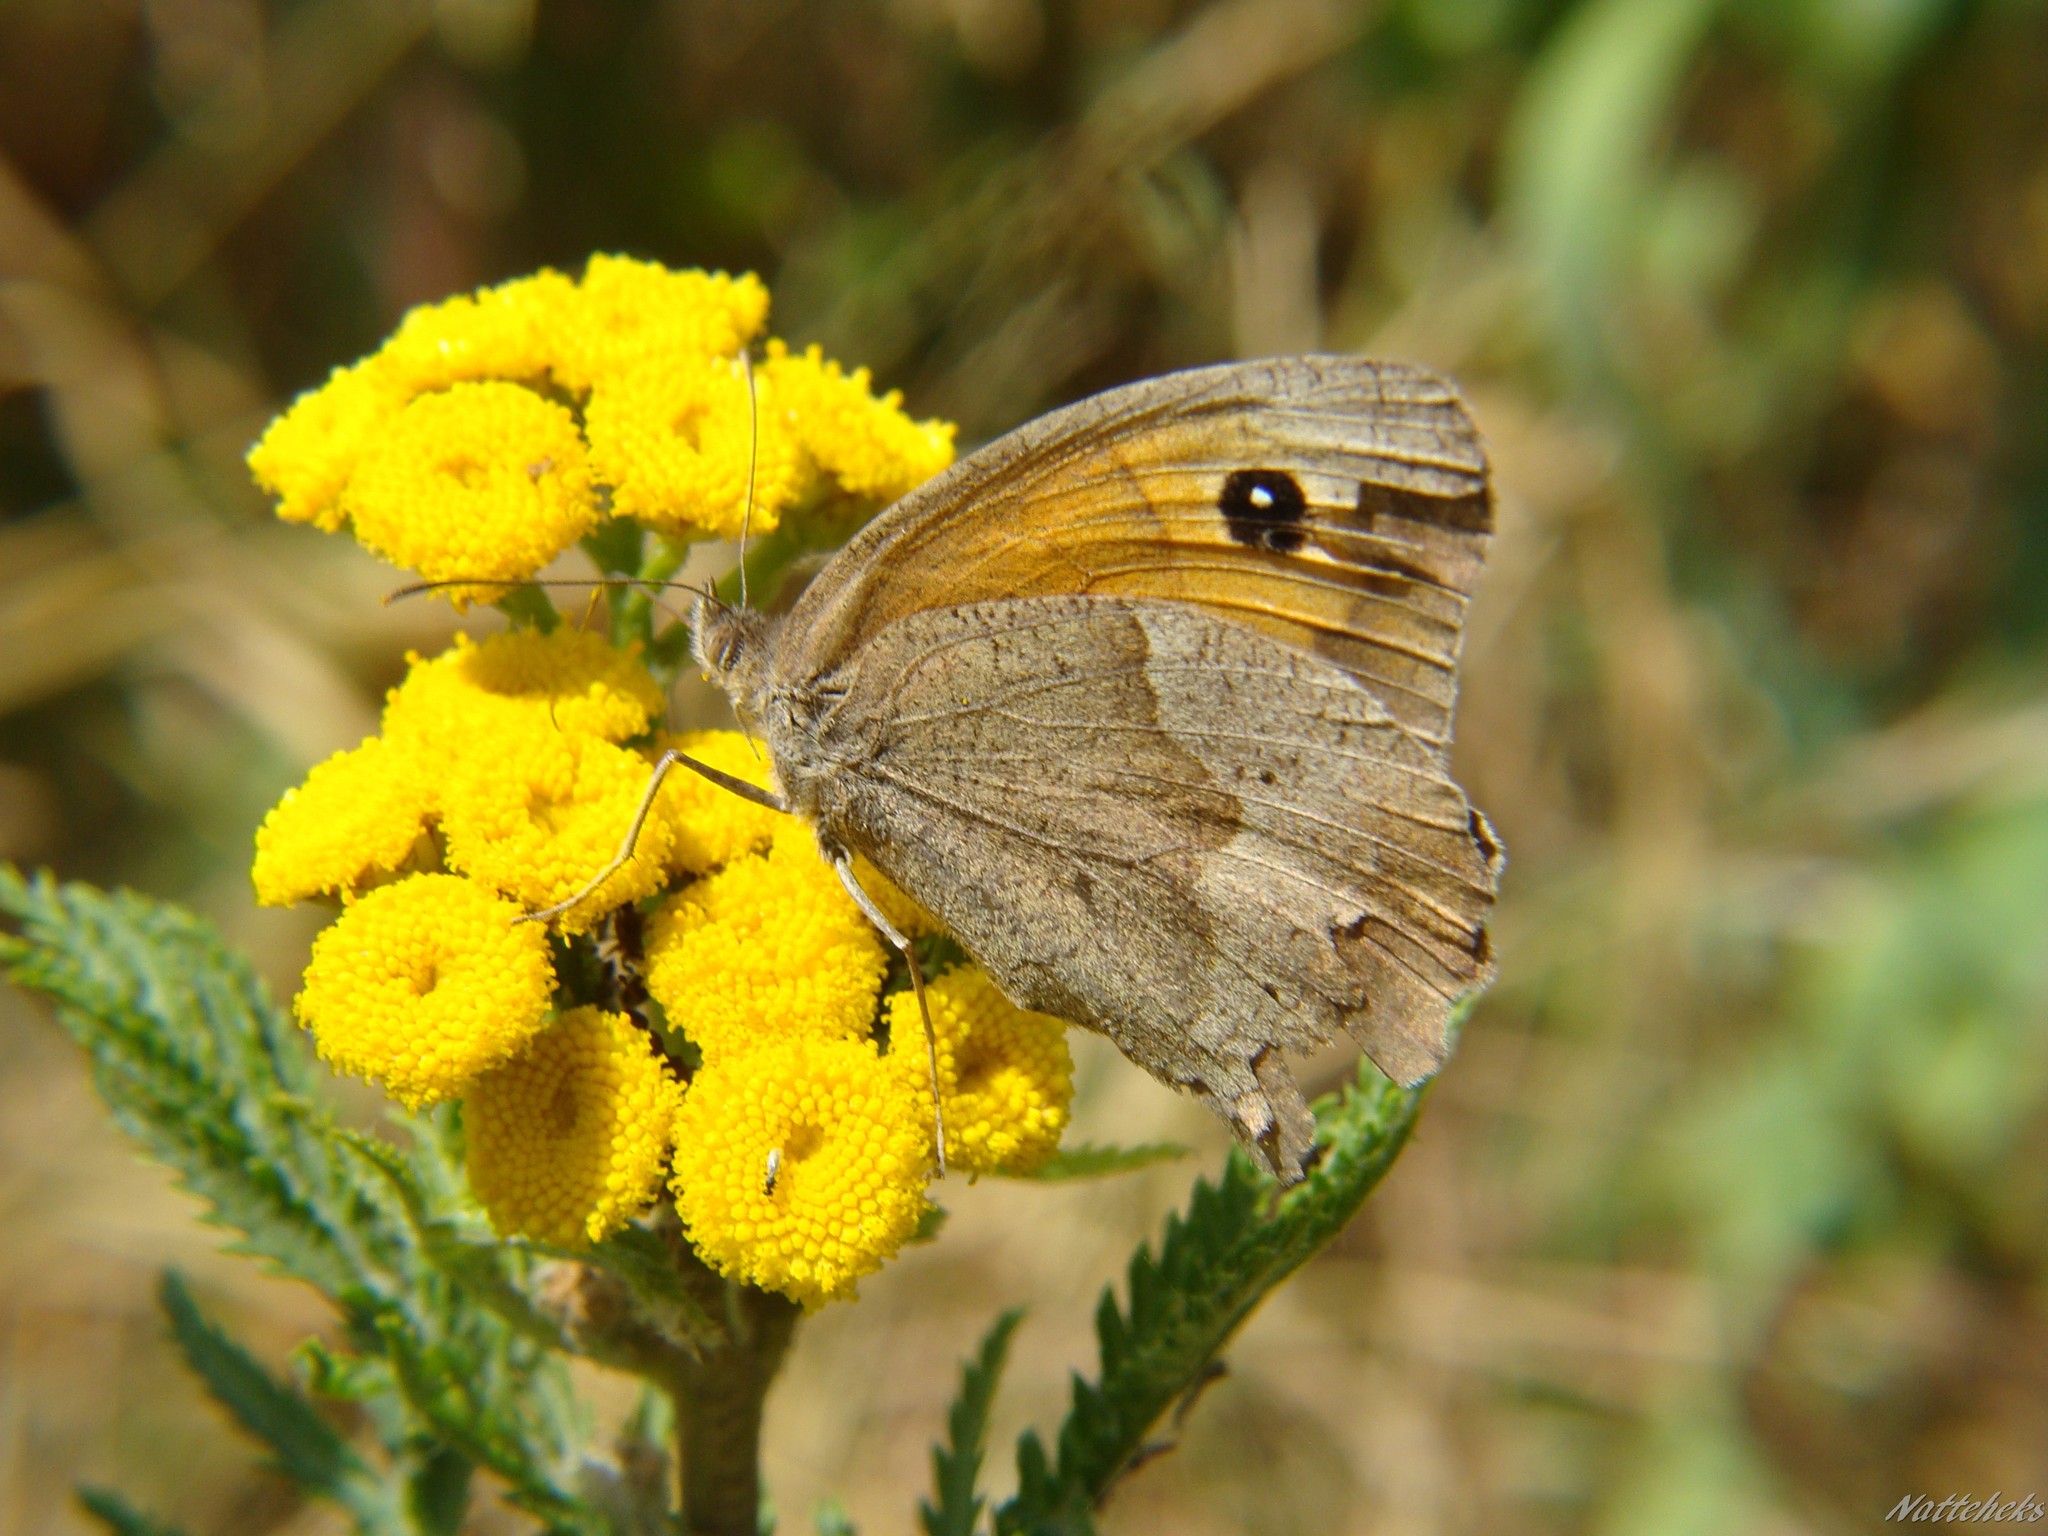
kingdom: Animalia
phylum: Arthropoda
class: Insecta
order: Lepidoptera
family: Nymphalidae
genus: Maniola
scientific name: Maniola jurtina
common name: Meadow brown
